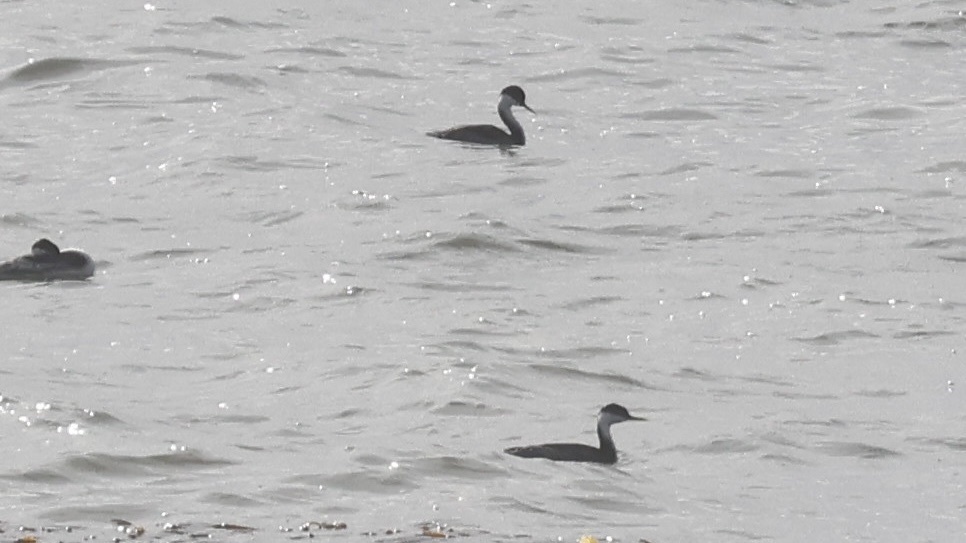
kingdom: Animalia
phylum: Chordata
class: Aves
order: Podicipediformes
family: Podicipedidae
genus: Aechmophorus
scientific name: Aechmophorus occidentalis
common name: Western grebe
